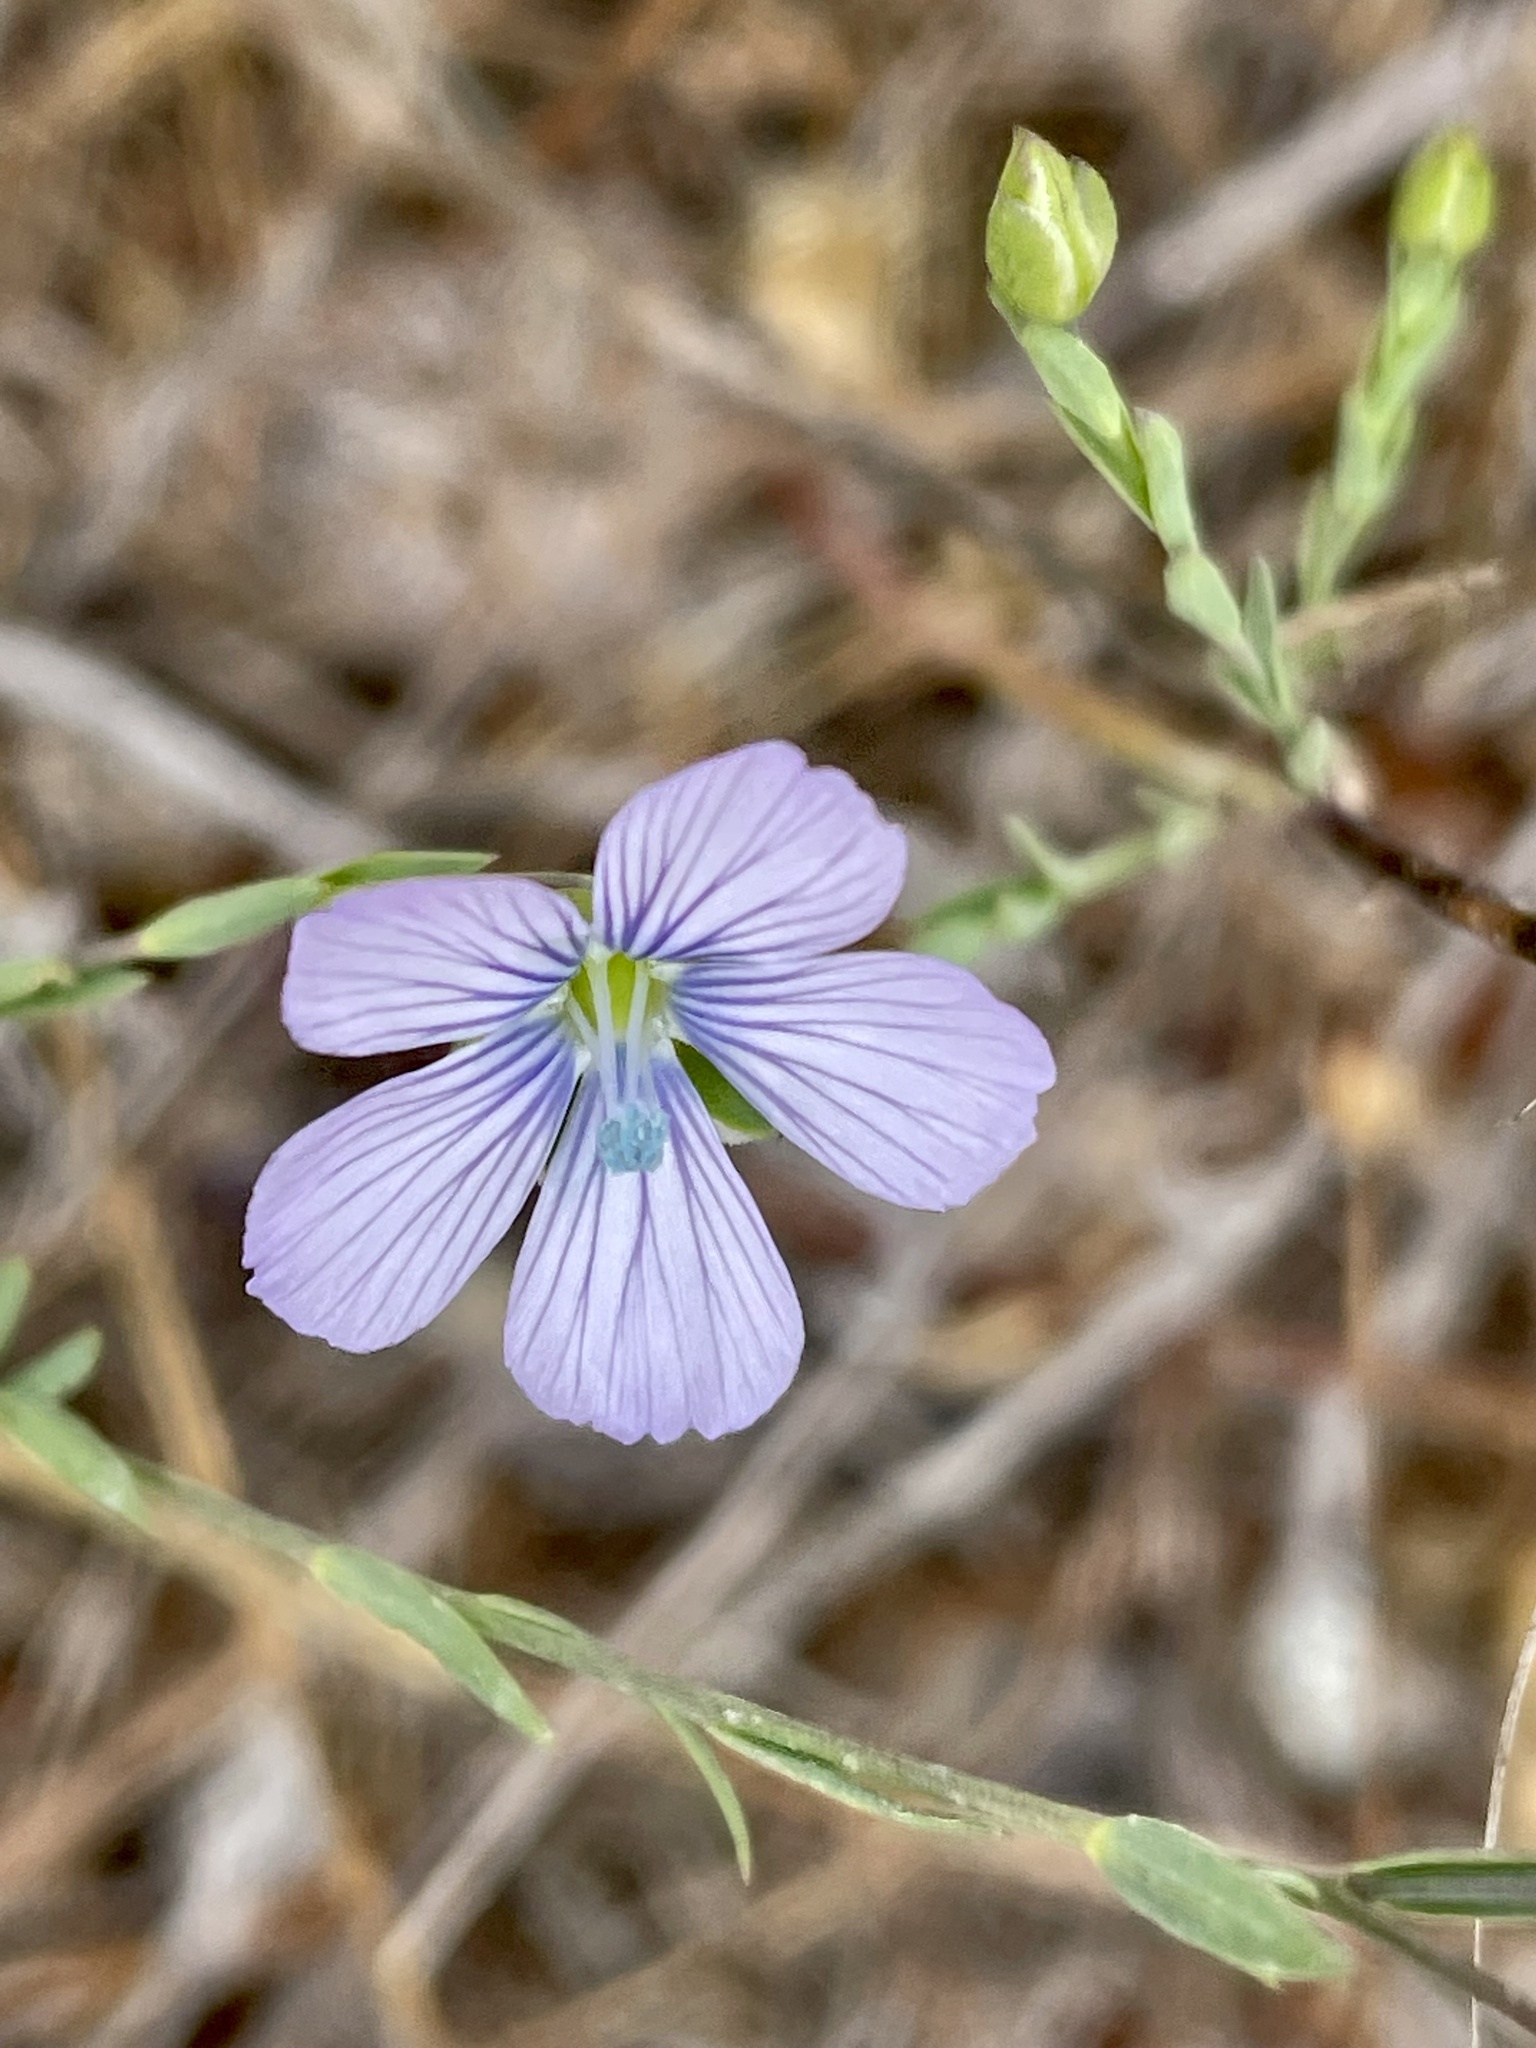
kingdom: Plantae
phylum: Tracheophyta
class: Magnoliopsida
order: Malpighiales
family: Linaceae
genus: Linum
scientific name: Linum bienne
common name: Pale flax
